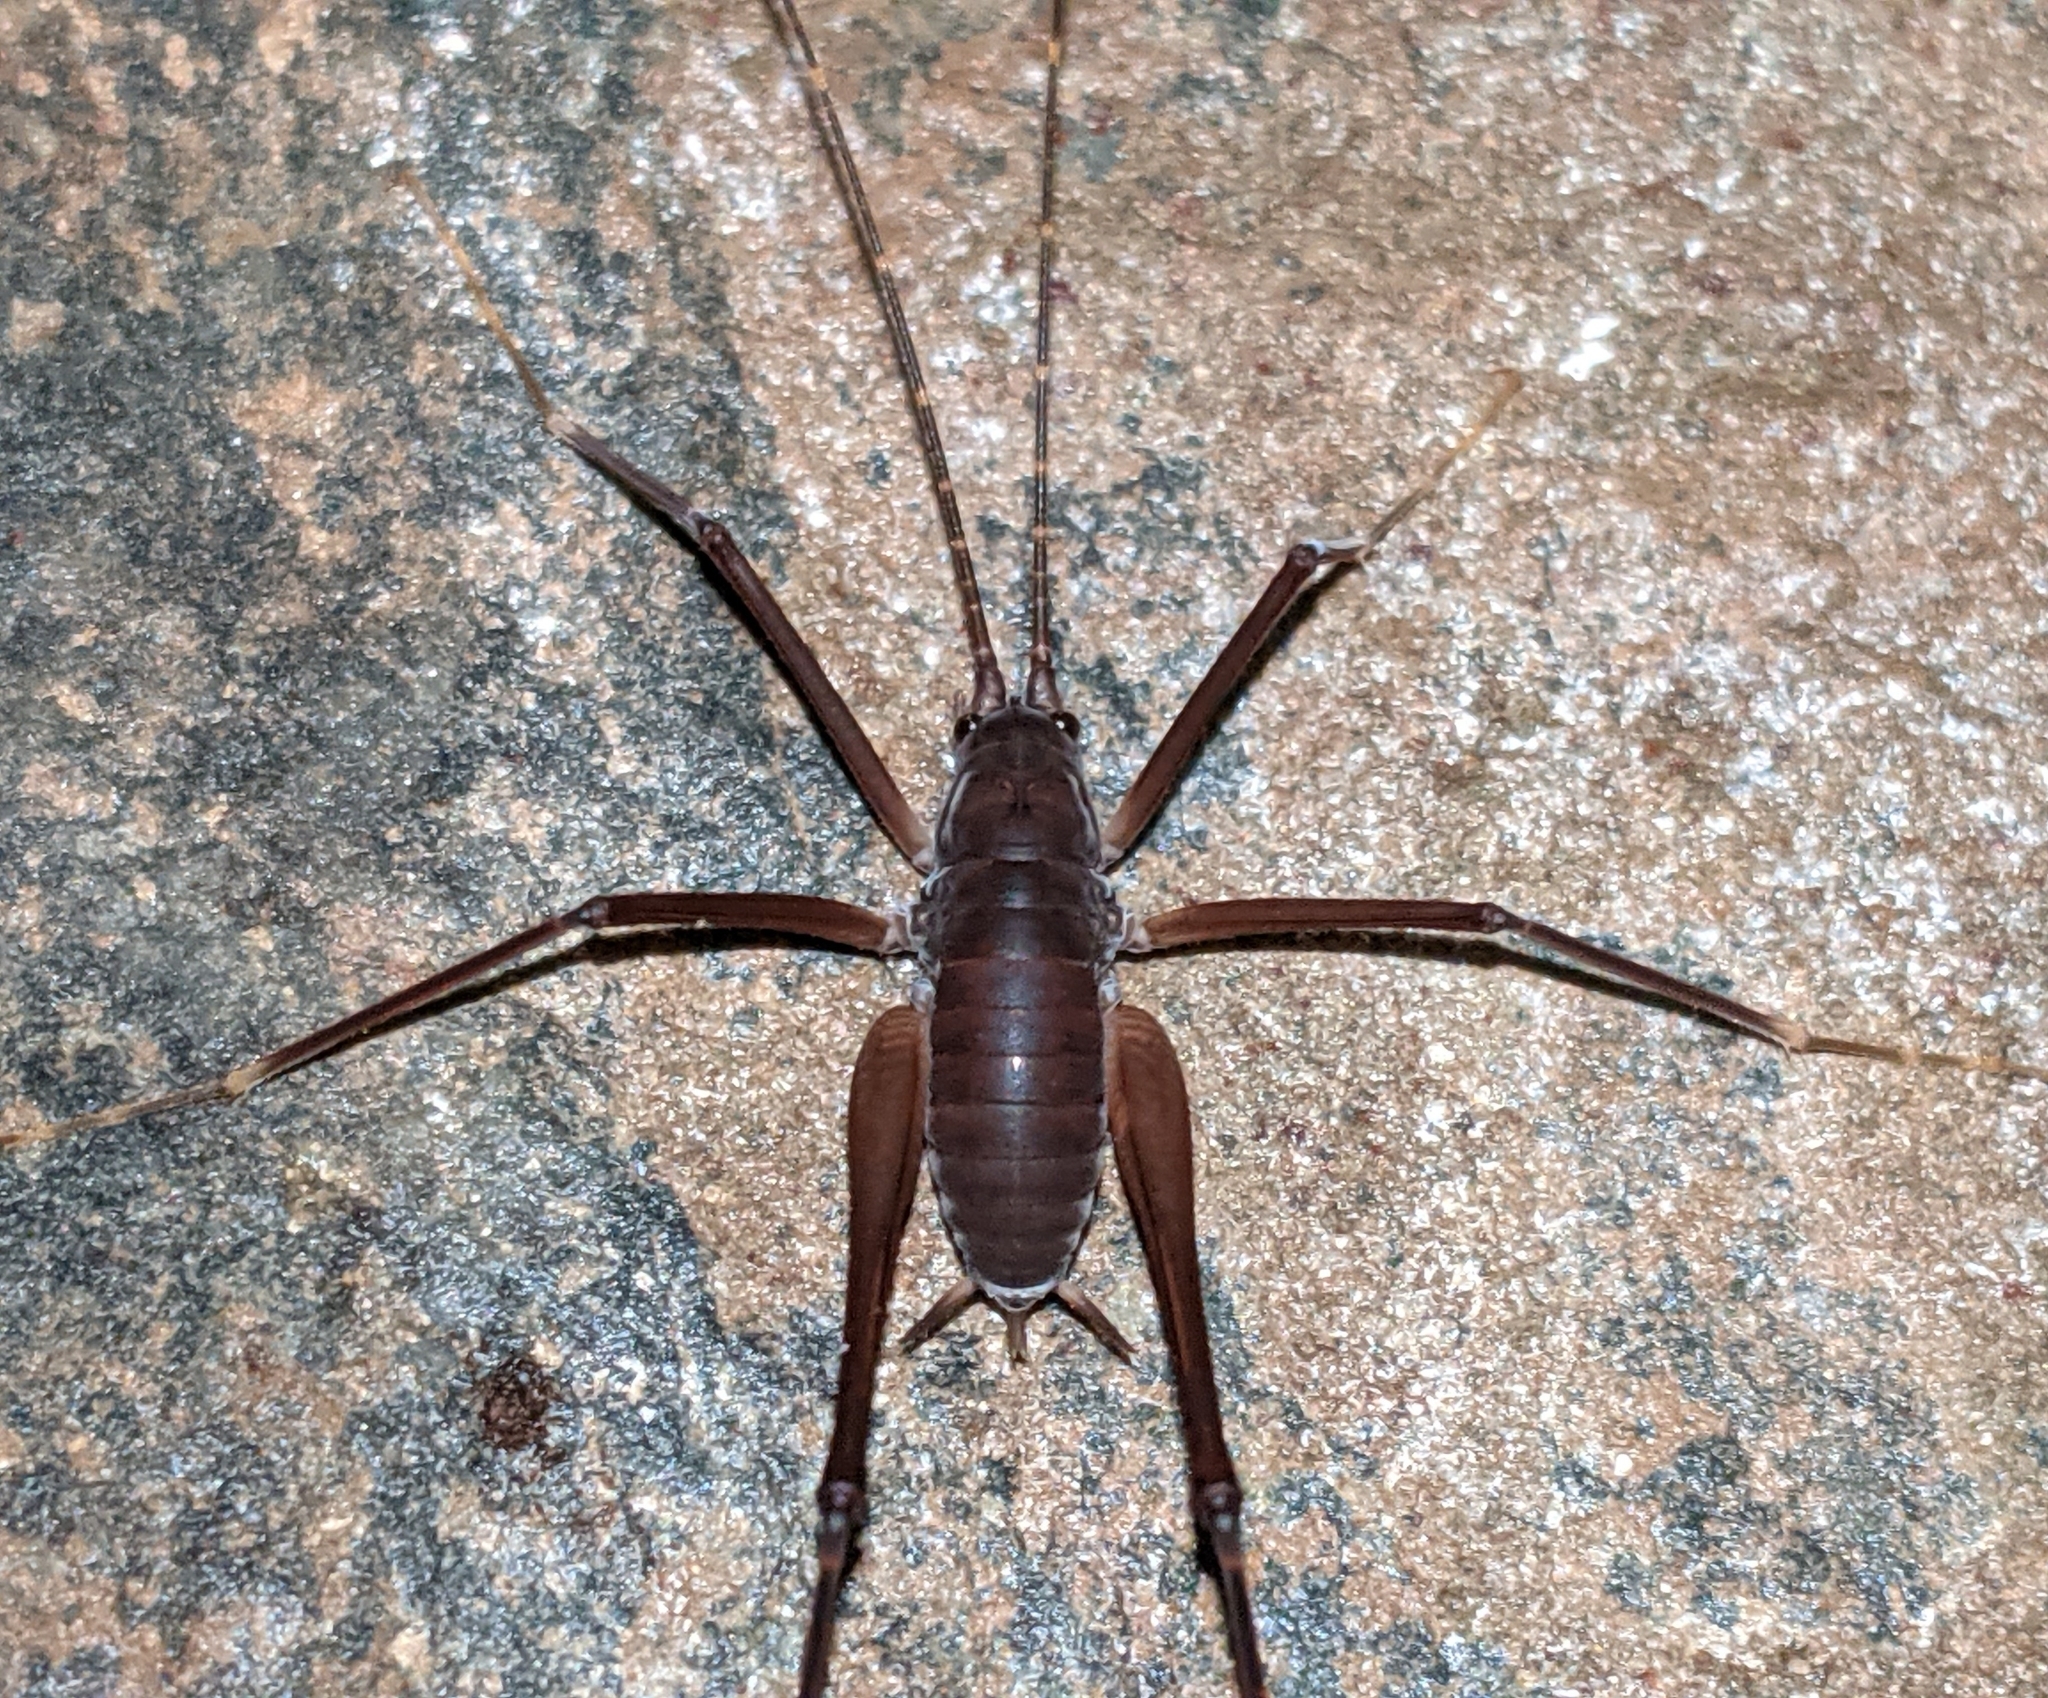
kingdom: Animalia
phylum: Arthropoda
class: Insecta
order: Orthoptera
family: Rhaphidophoridae
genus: Tropidischia
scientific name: Tropidischia xanthostoma
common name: Square-legged camel cricket
